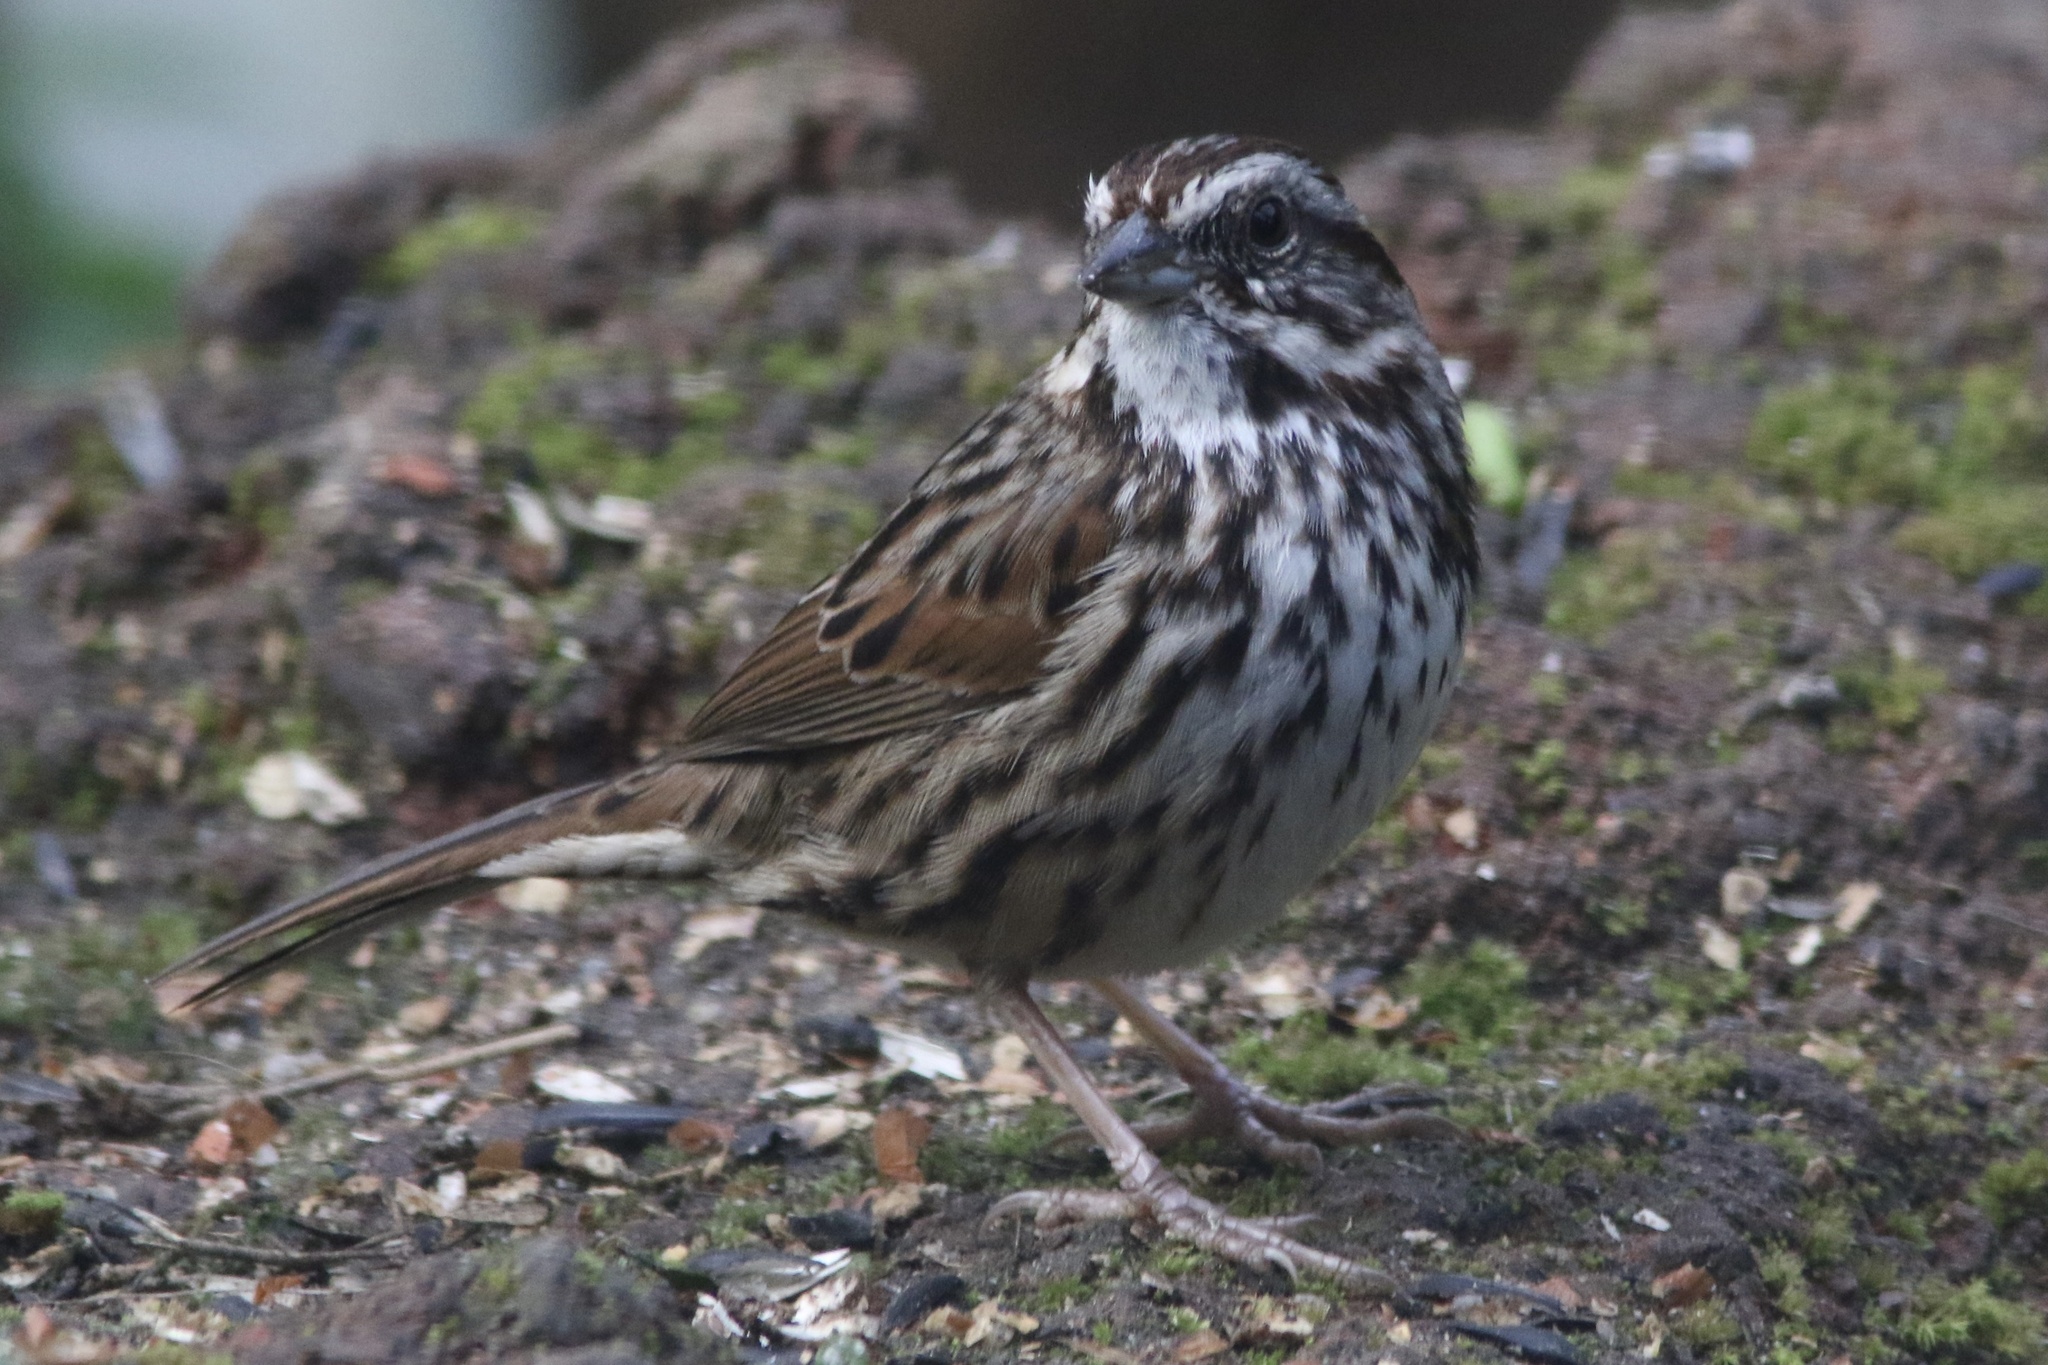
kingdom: Animalia
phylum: Chordata
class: Aves
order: Passeriformes
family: Passerellidae
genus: Melospiza
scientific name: Melospiza melodia
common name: Song sparrow
